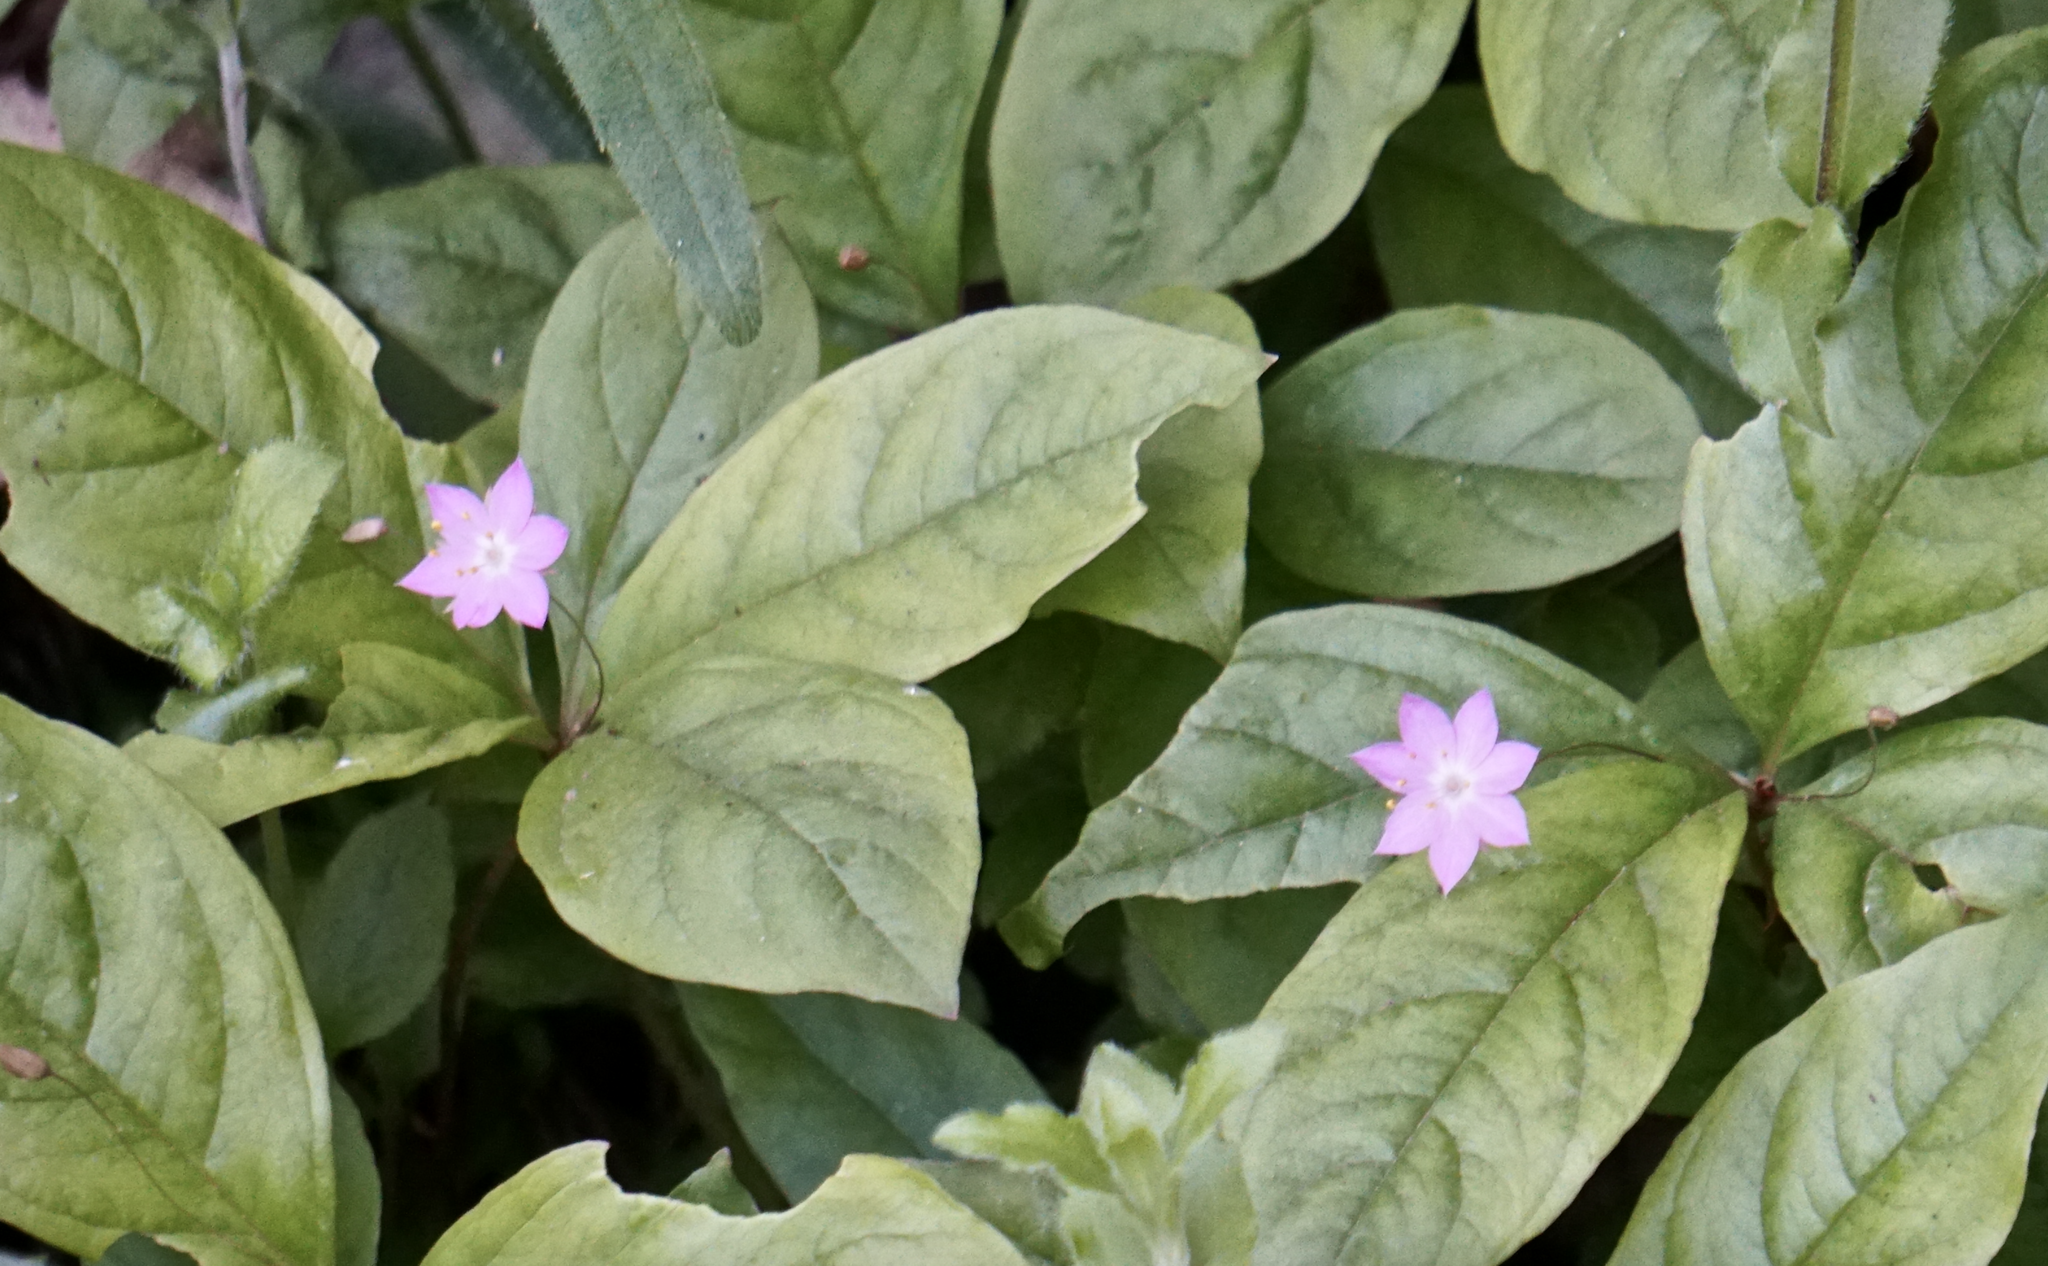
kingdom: Plantae
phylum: Tracheophyta
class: Magnoliopsida
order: Ericales
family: Primulaceae
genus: Lysimachia
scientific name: Lysimachia latifolia
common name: Pacific starflower
